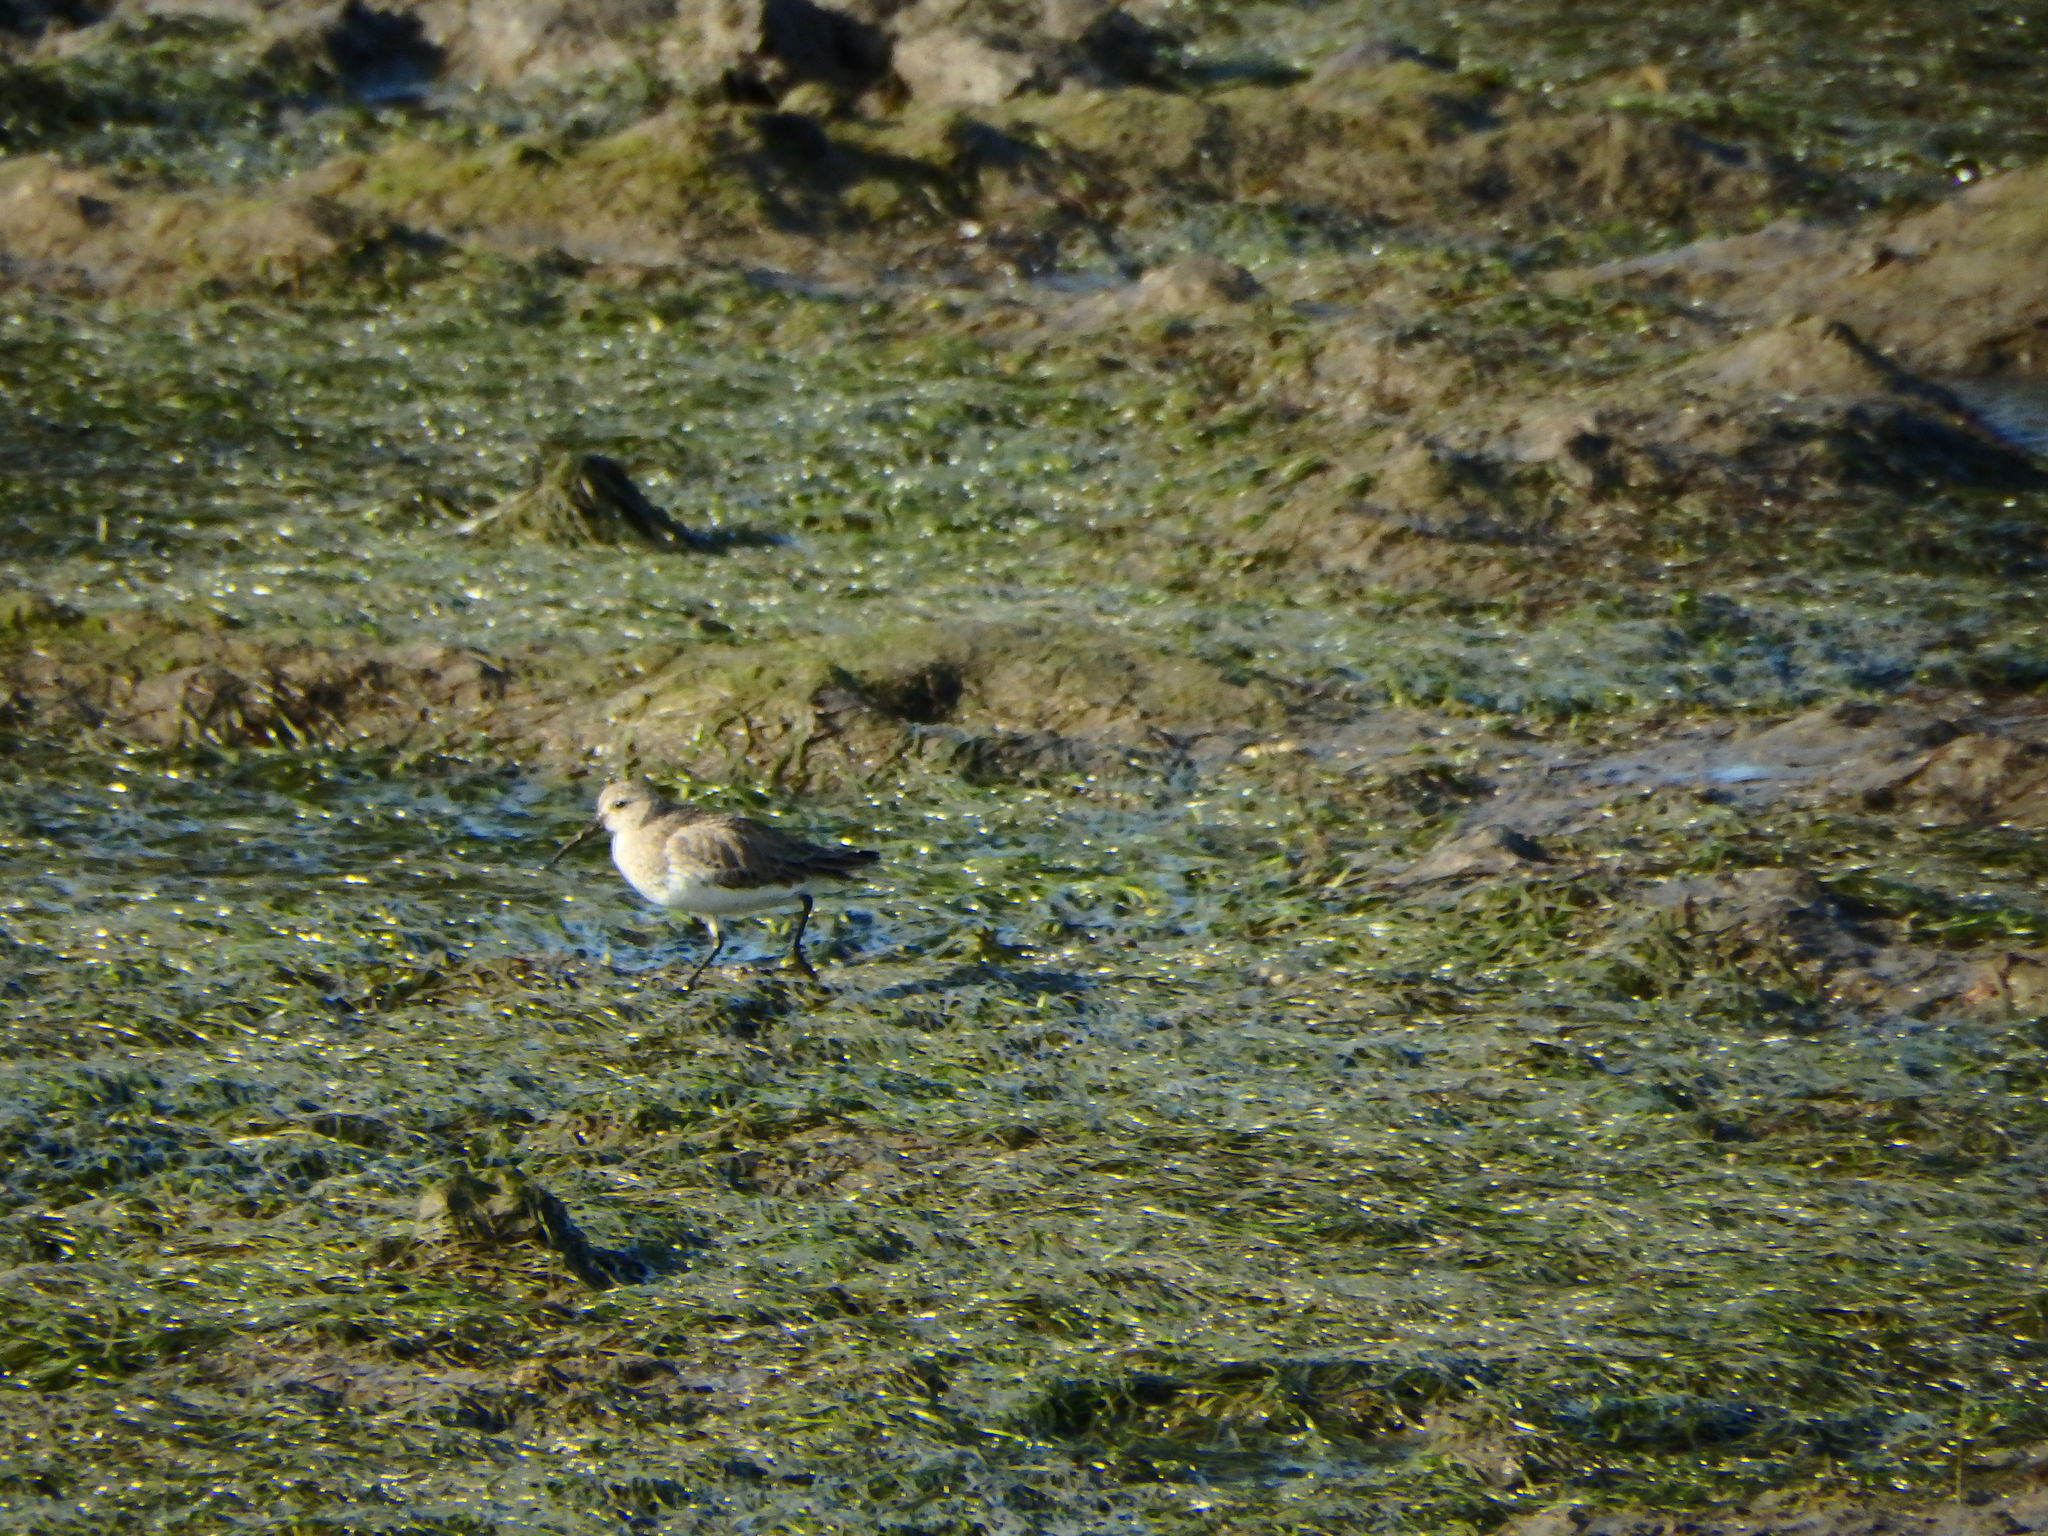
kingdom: Animalia
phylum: Chordata
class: Aves
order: Charadriiformes
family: Scolopacidae
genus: Calidris
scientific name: Calidris alpina
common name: Dunlin
